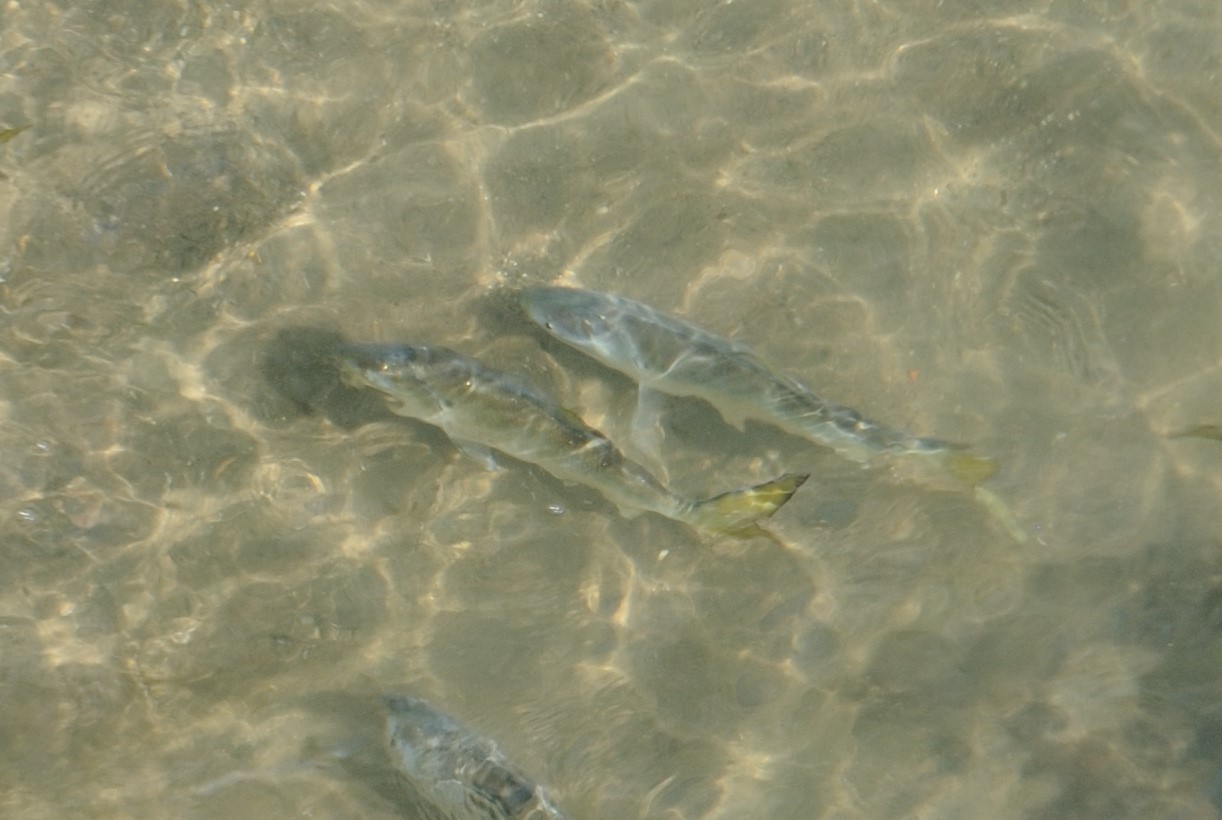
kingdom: Animalia
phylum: Chordata
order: Clupeiformes
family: Clupeidae
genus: Brevoortia
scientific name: Brevoortia tyrannus
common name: Atlantic menhaden
